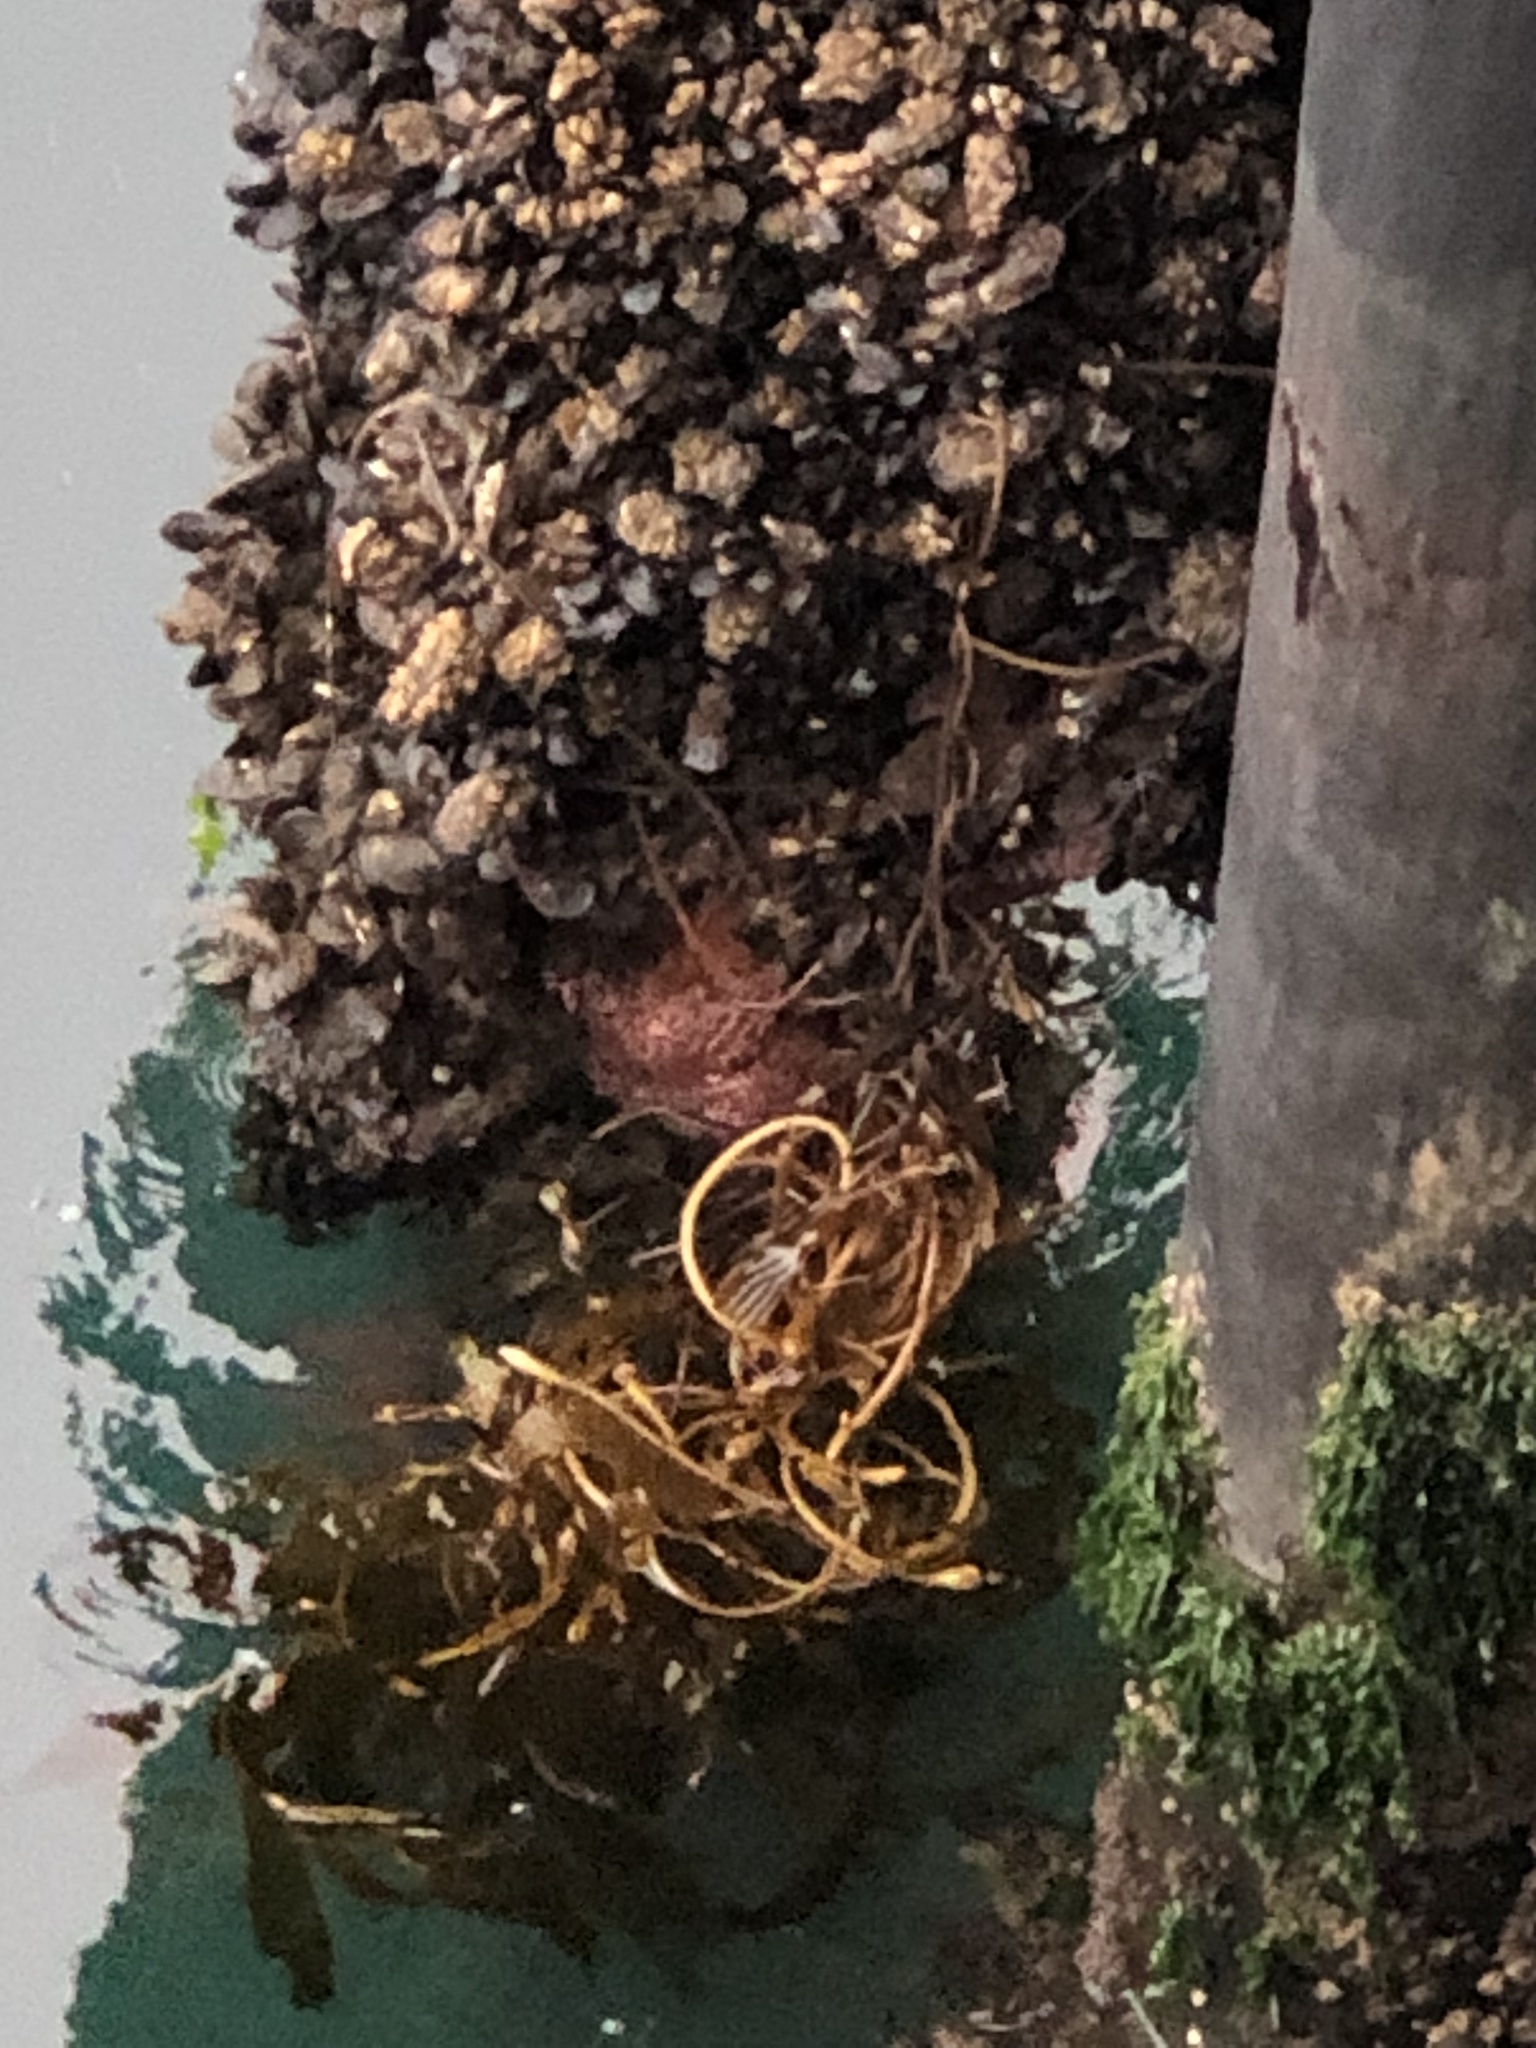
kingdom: Animalia
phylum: Echinodermata
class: Asteroidea
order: Forcipulatida
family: Asteriidae
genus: Pisaster
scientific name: Pisaster ochraceus
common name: Ochre stars
